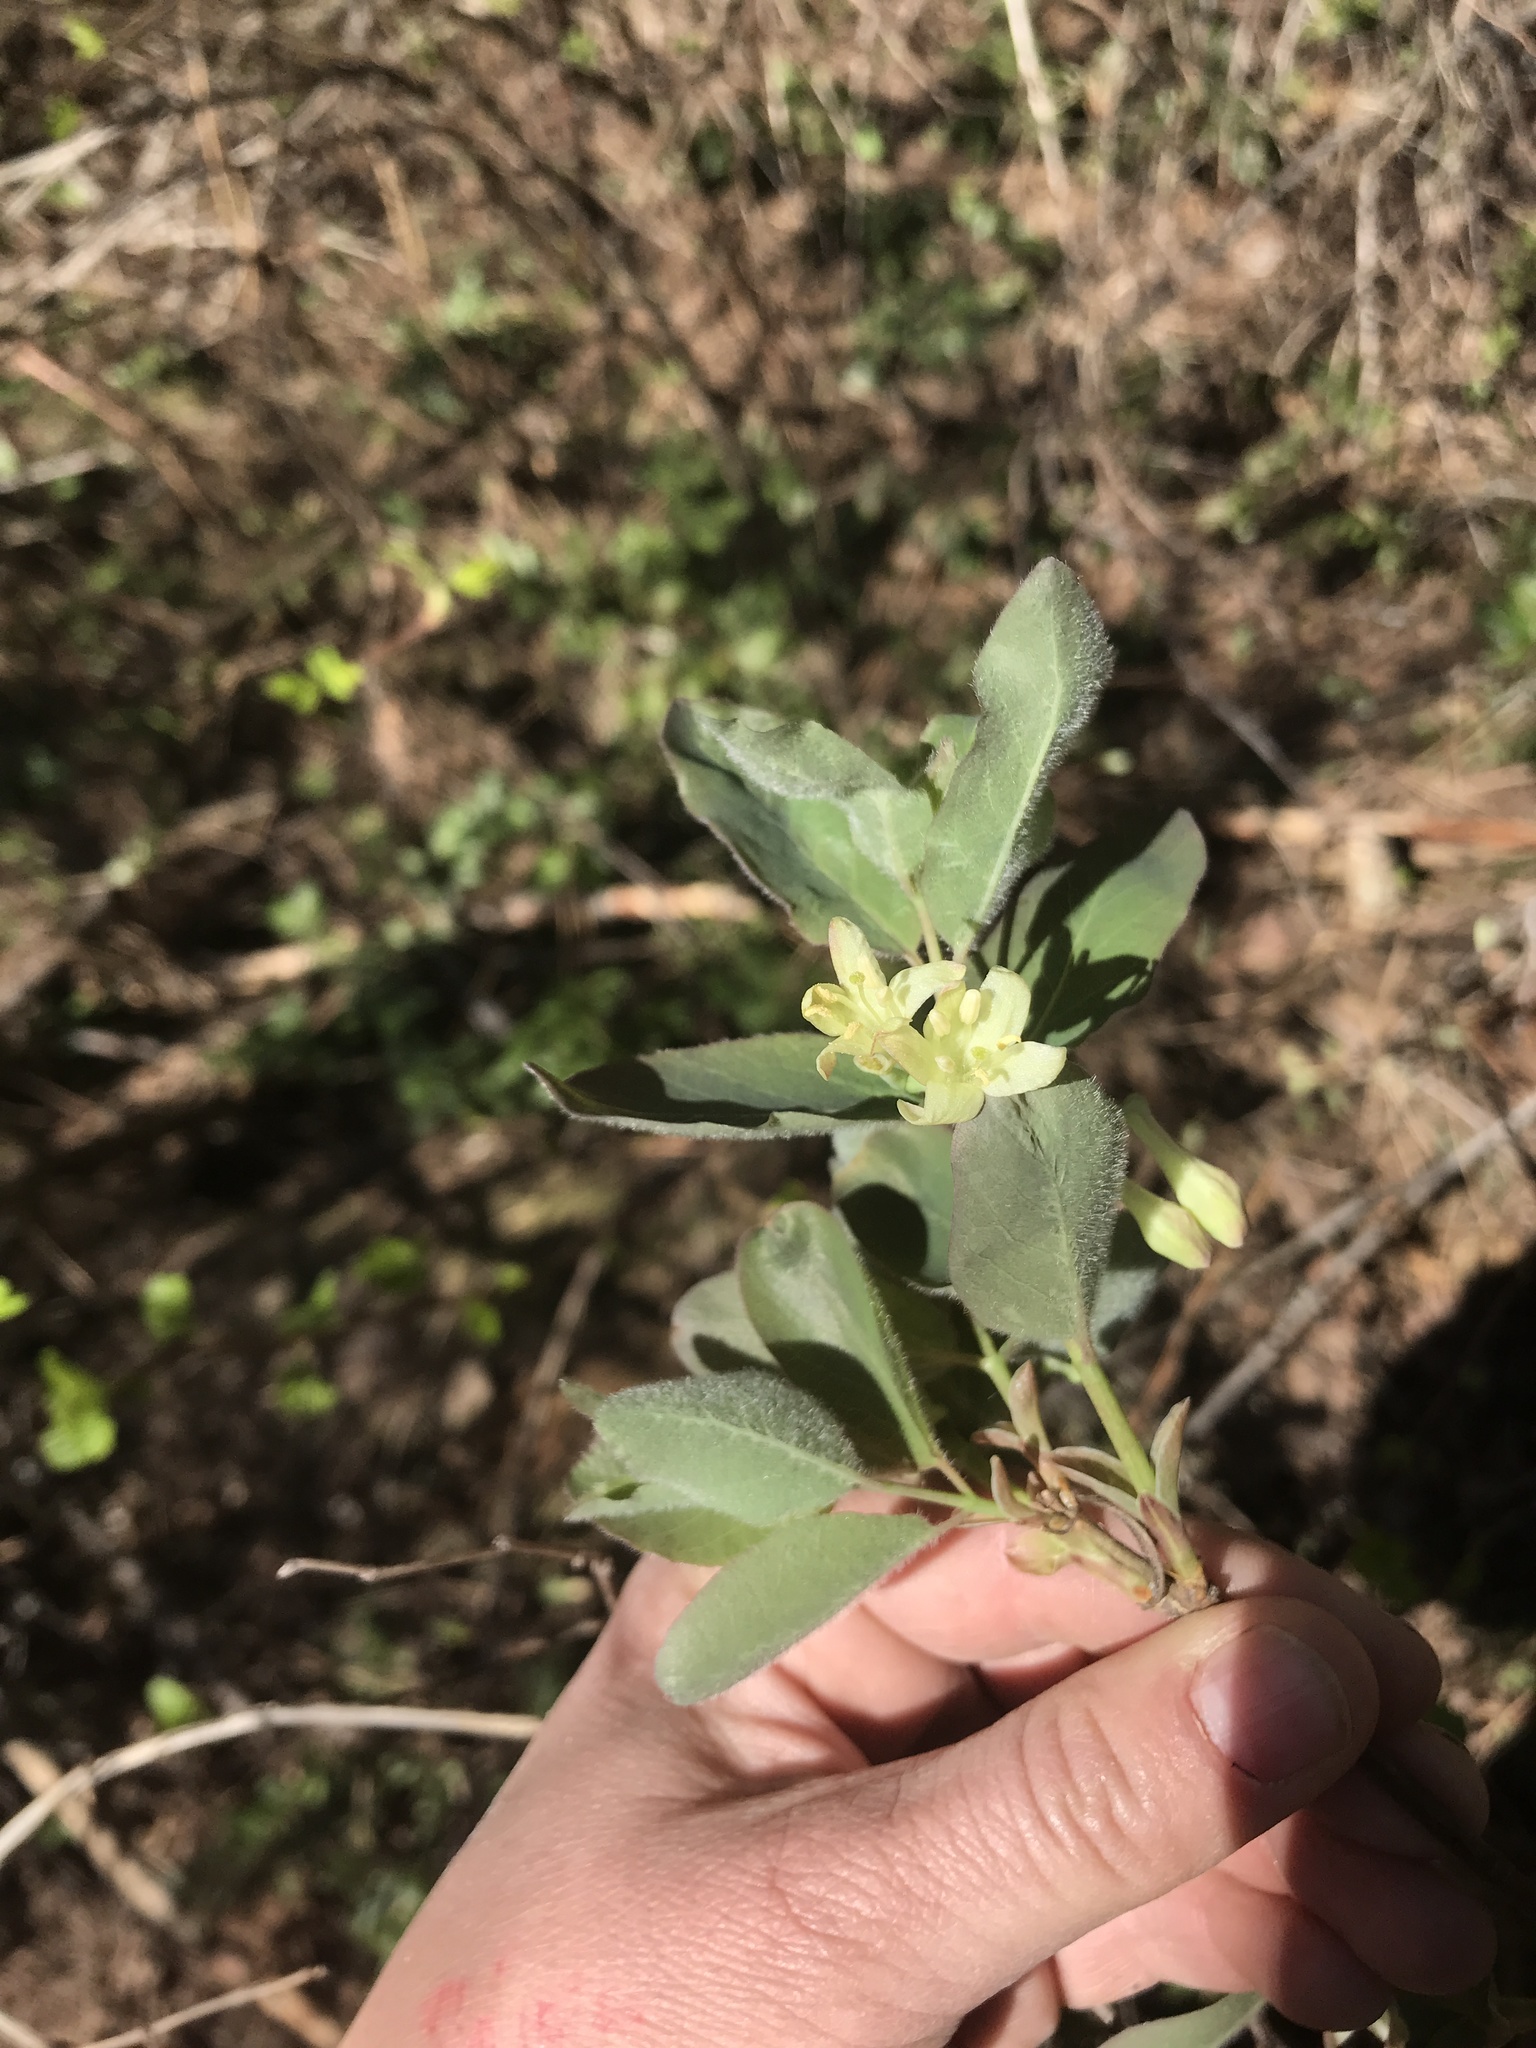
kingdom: Plantae
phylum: Tracheophyta
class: Magnoliopsida
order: Dipsacales
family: Caprifoliaceae
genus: Lonicera
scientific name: Lonicera utahensis
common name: Utah honeysuckle
